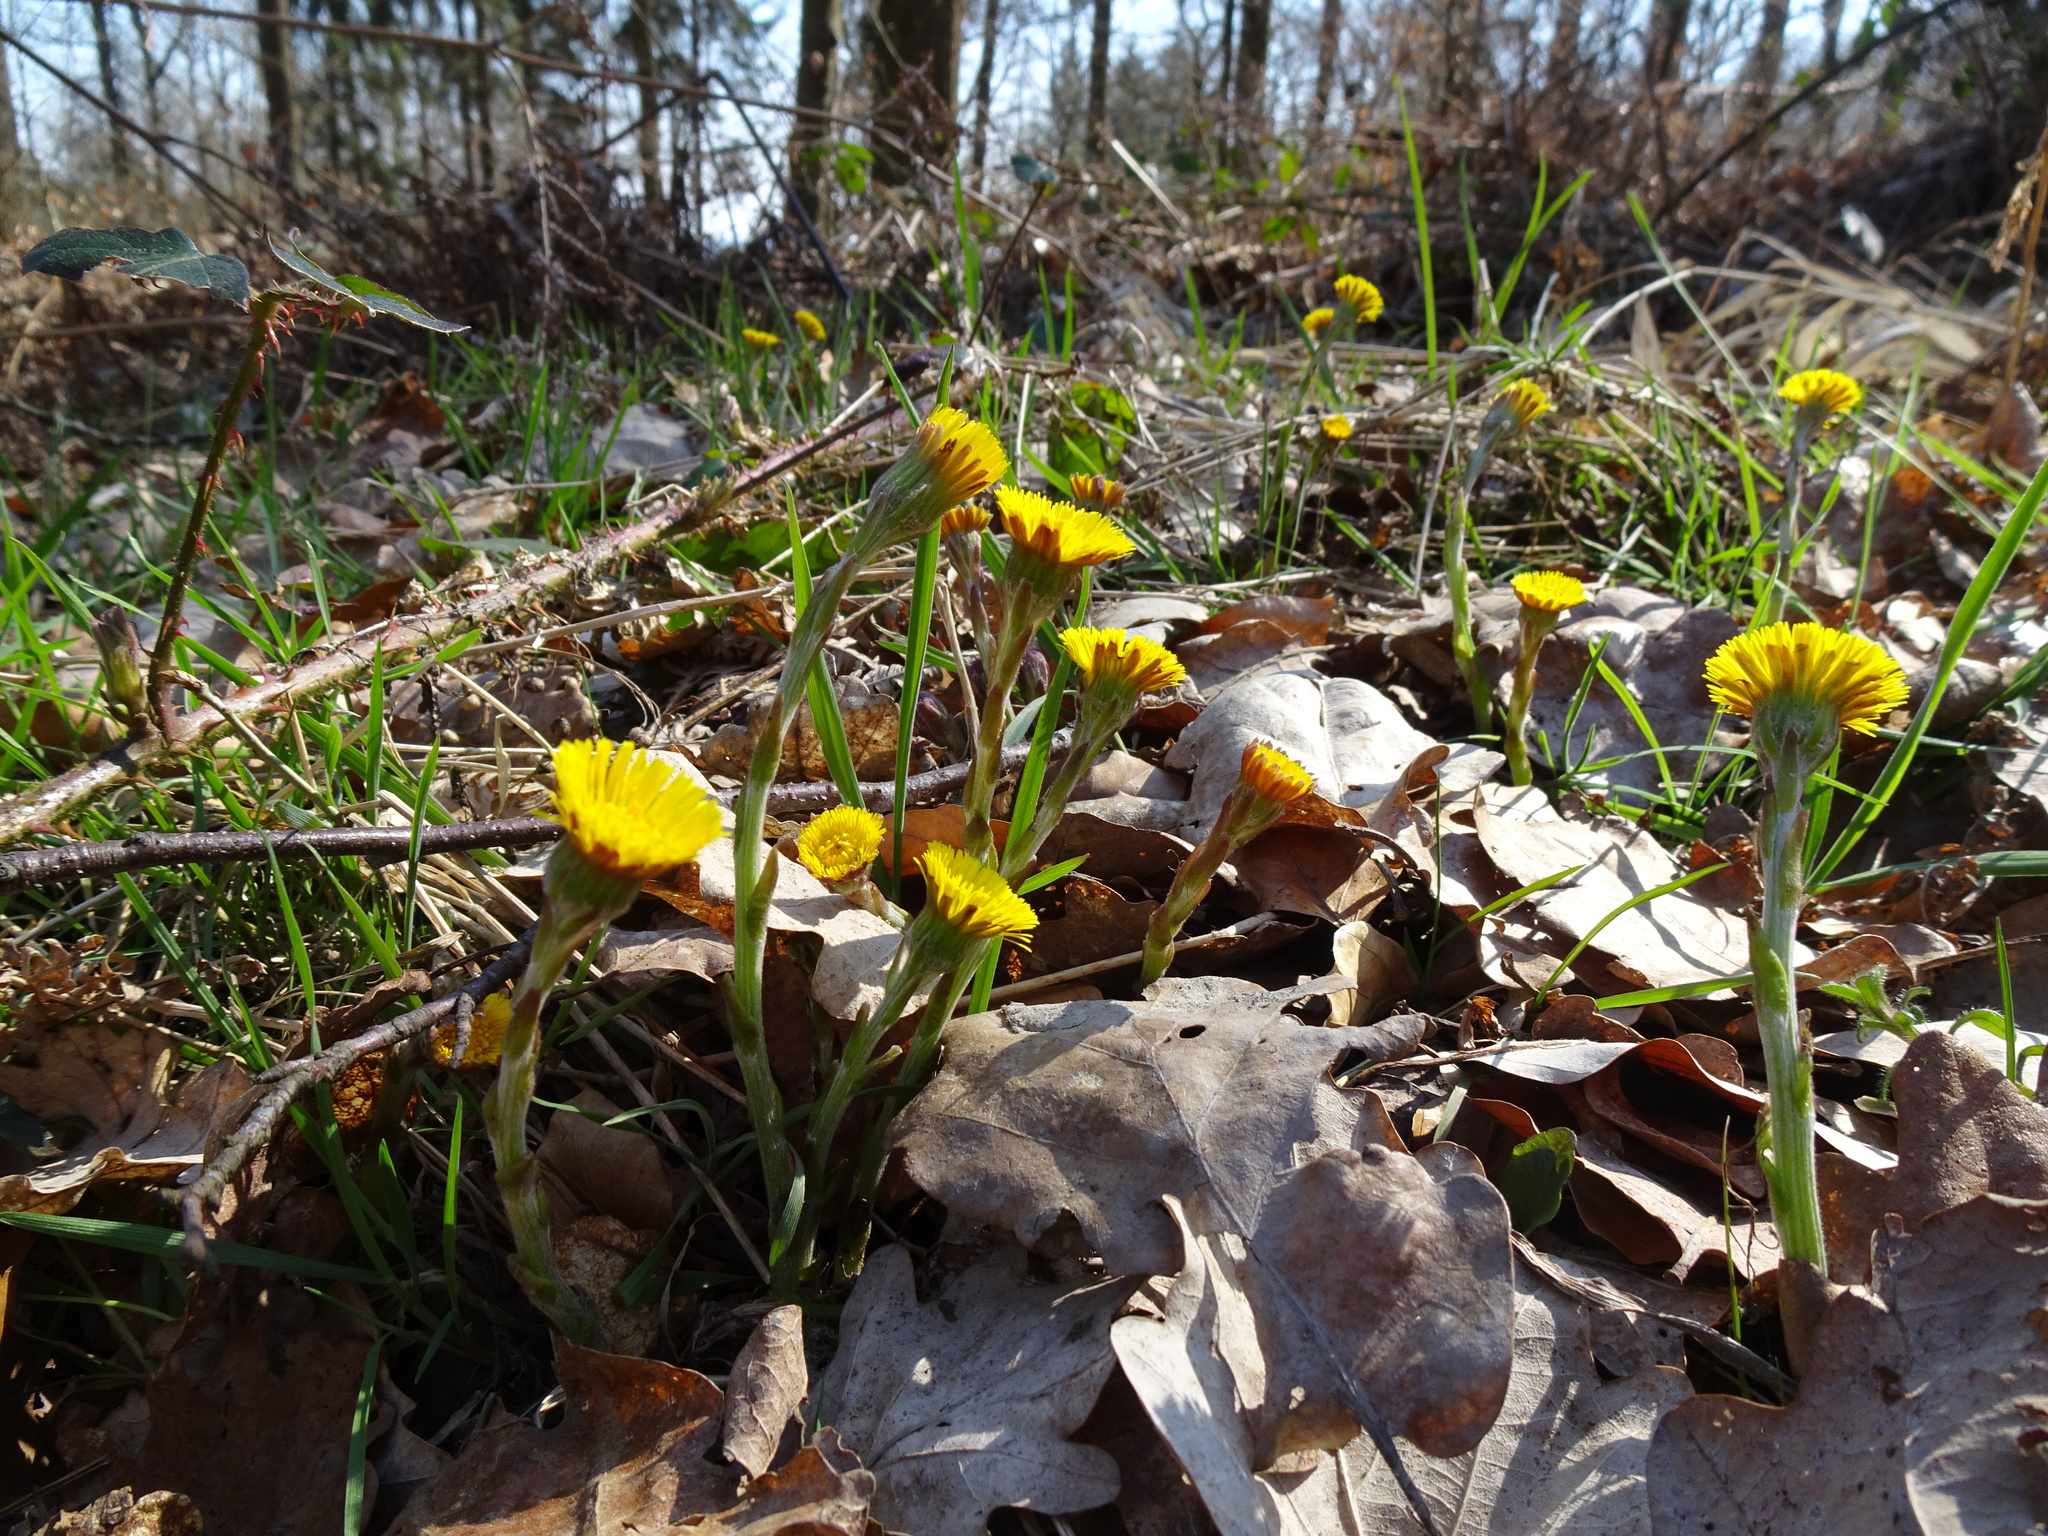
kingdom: Plantae
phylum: Tracheophyta
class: Magnoliopsida
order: Asterales
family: Asteraceae
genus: Tussilago
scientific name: Tussilago farfara
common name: Coltsfoot
